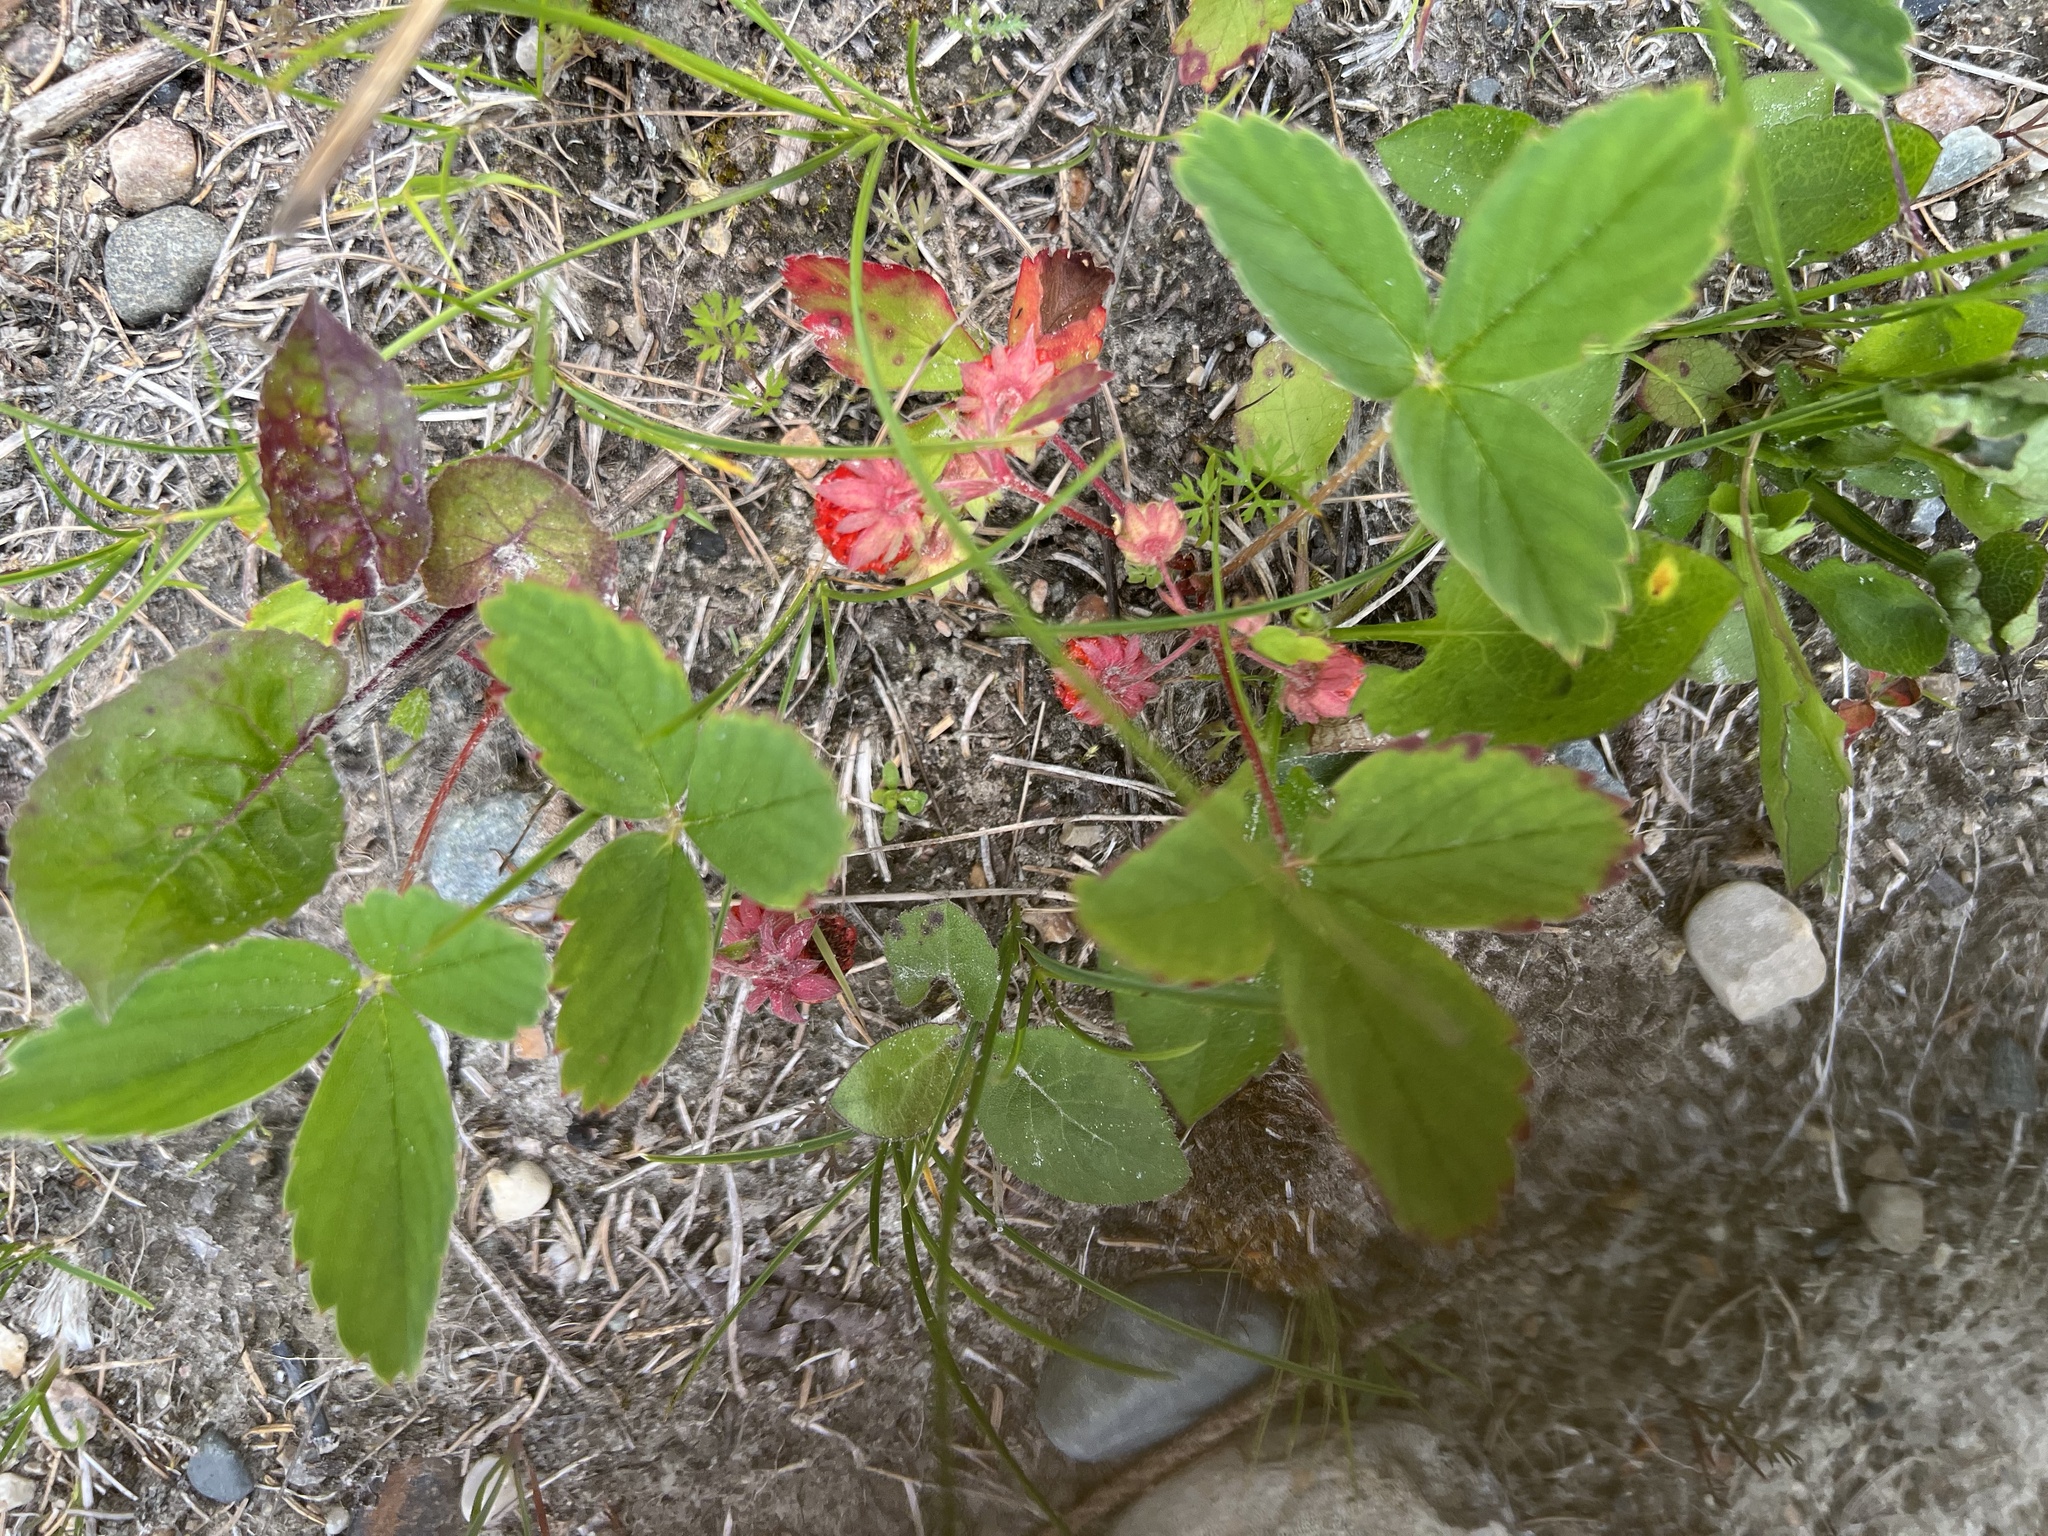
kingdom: Plantae
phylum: Tracheophyta
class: Magnoliopsida
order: Rosales
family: Rosaceae
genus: Fragaria
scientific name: Fragaria virginiana
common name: Thickleaved wild strawberry
